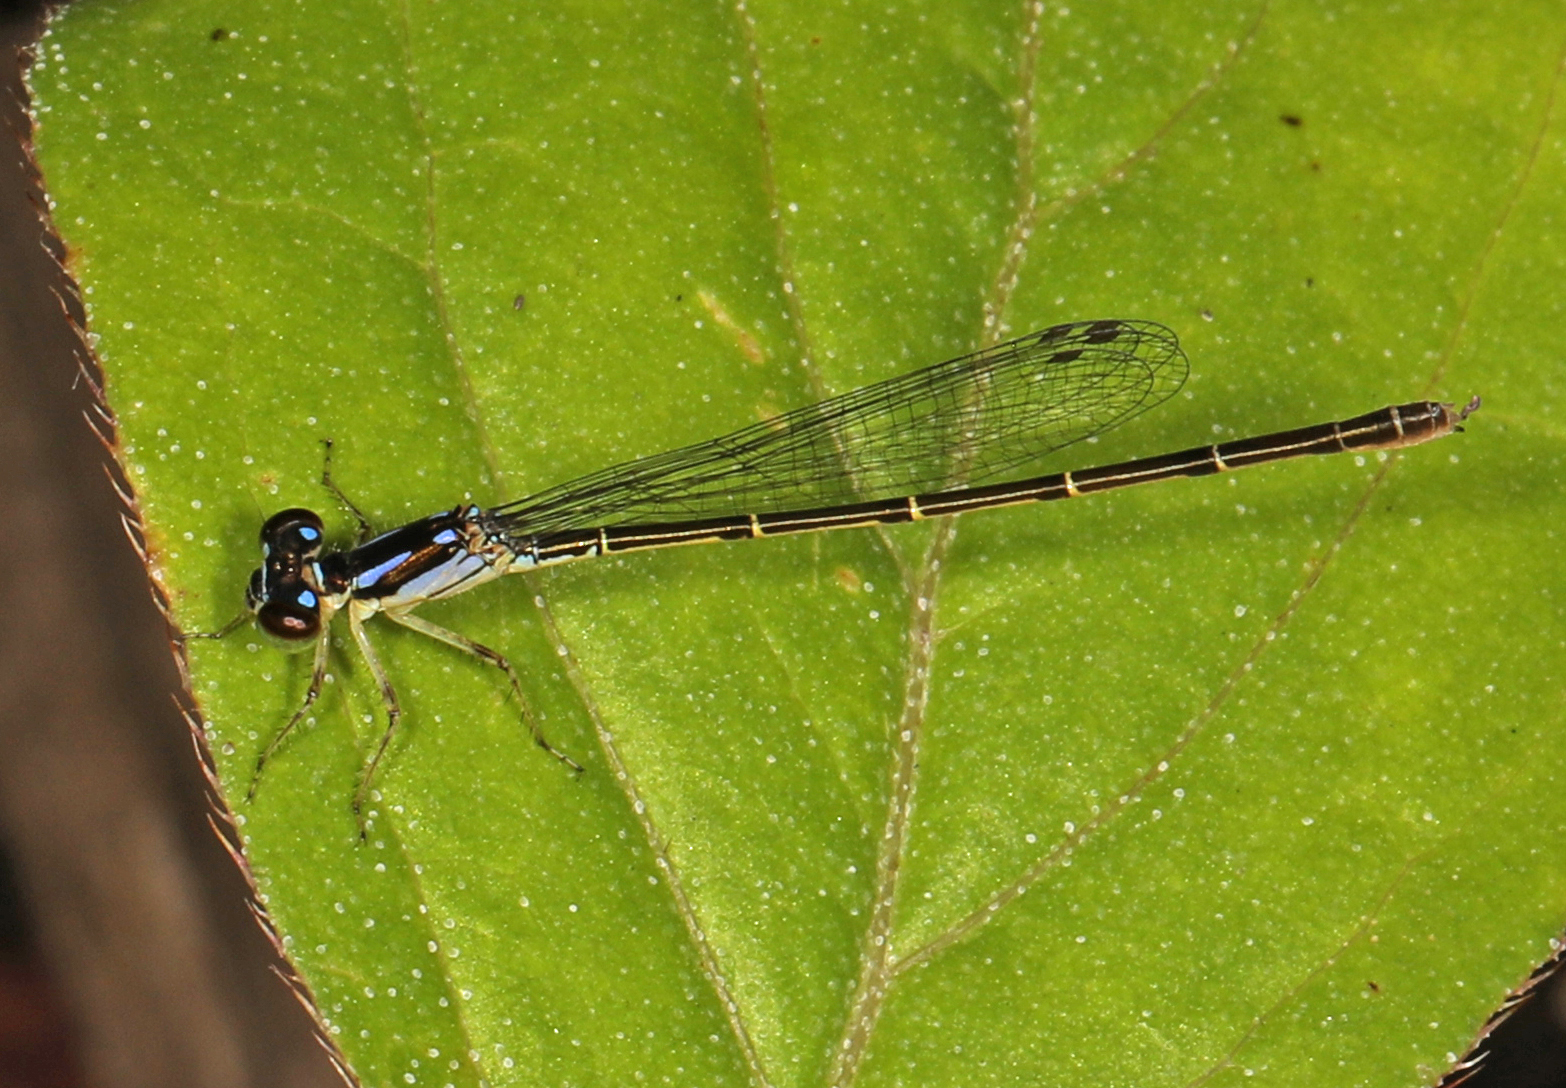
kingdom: Animalia
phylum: Arthropoda
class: Insecta
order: Odonata
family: Coenagrionidae
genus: Ischnura
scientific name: Ischnura posita
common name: Fragile forktail
